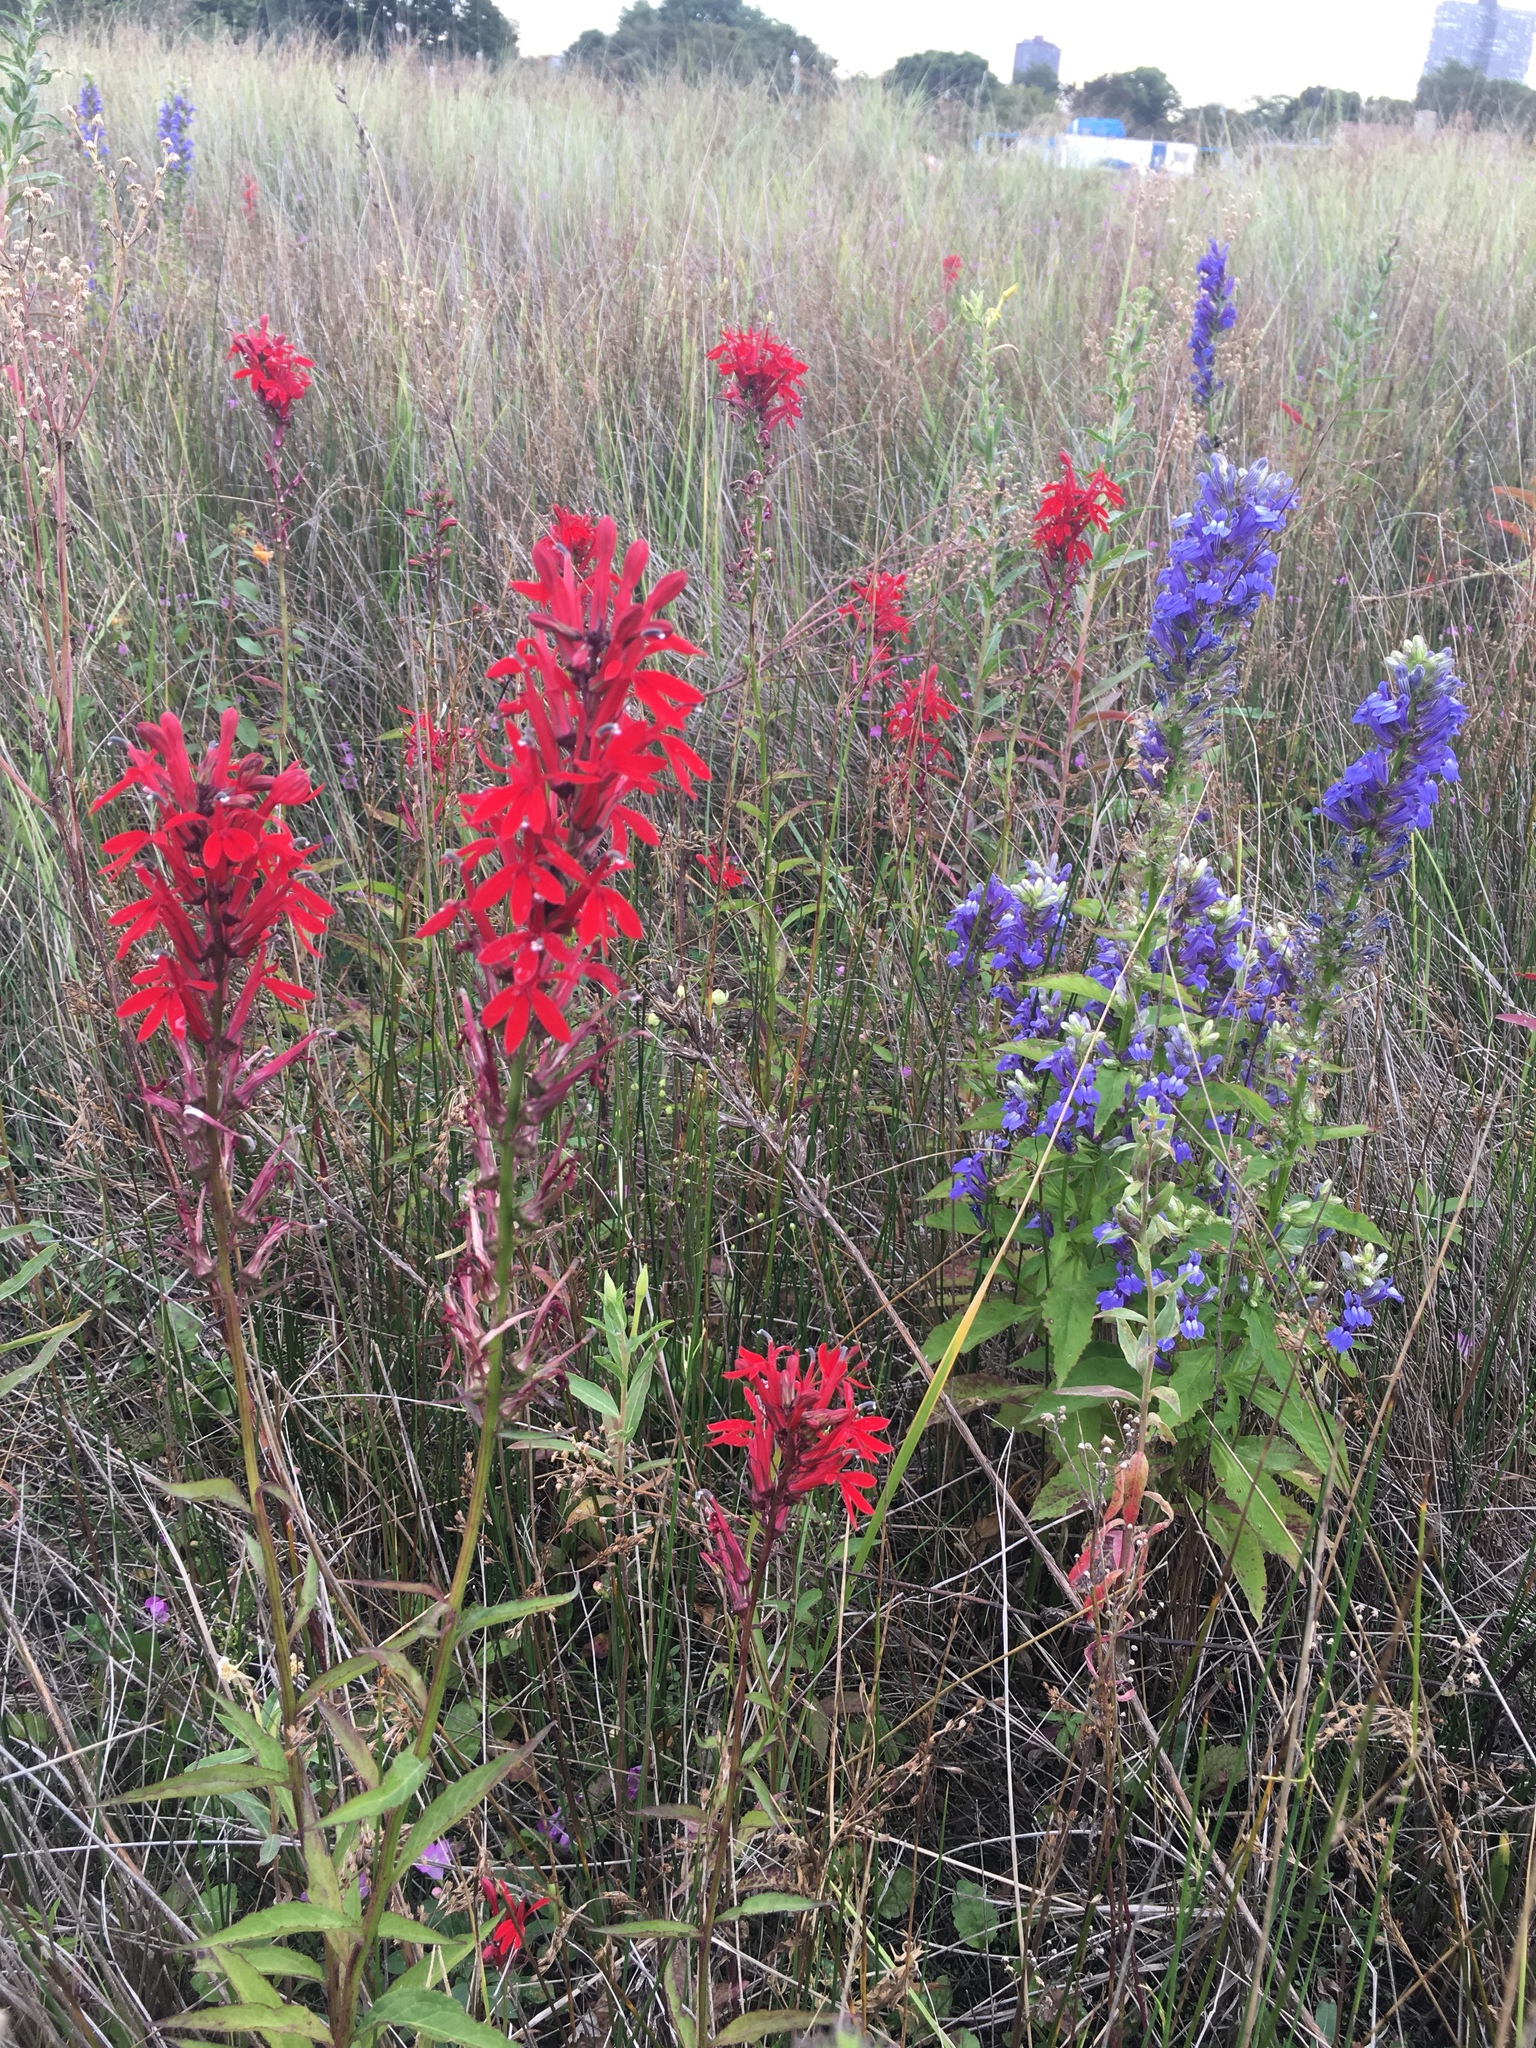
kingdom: Plantae
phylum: Tracheophyta
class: Magnoliopsida
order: Asterales
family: Campanulaceae
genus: Lobelia
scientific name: Lobelia cardinalis
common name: Cardinal flower
